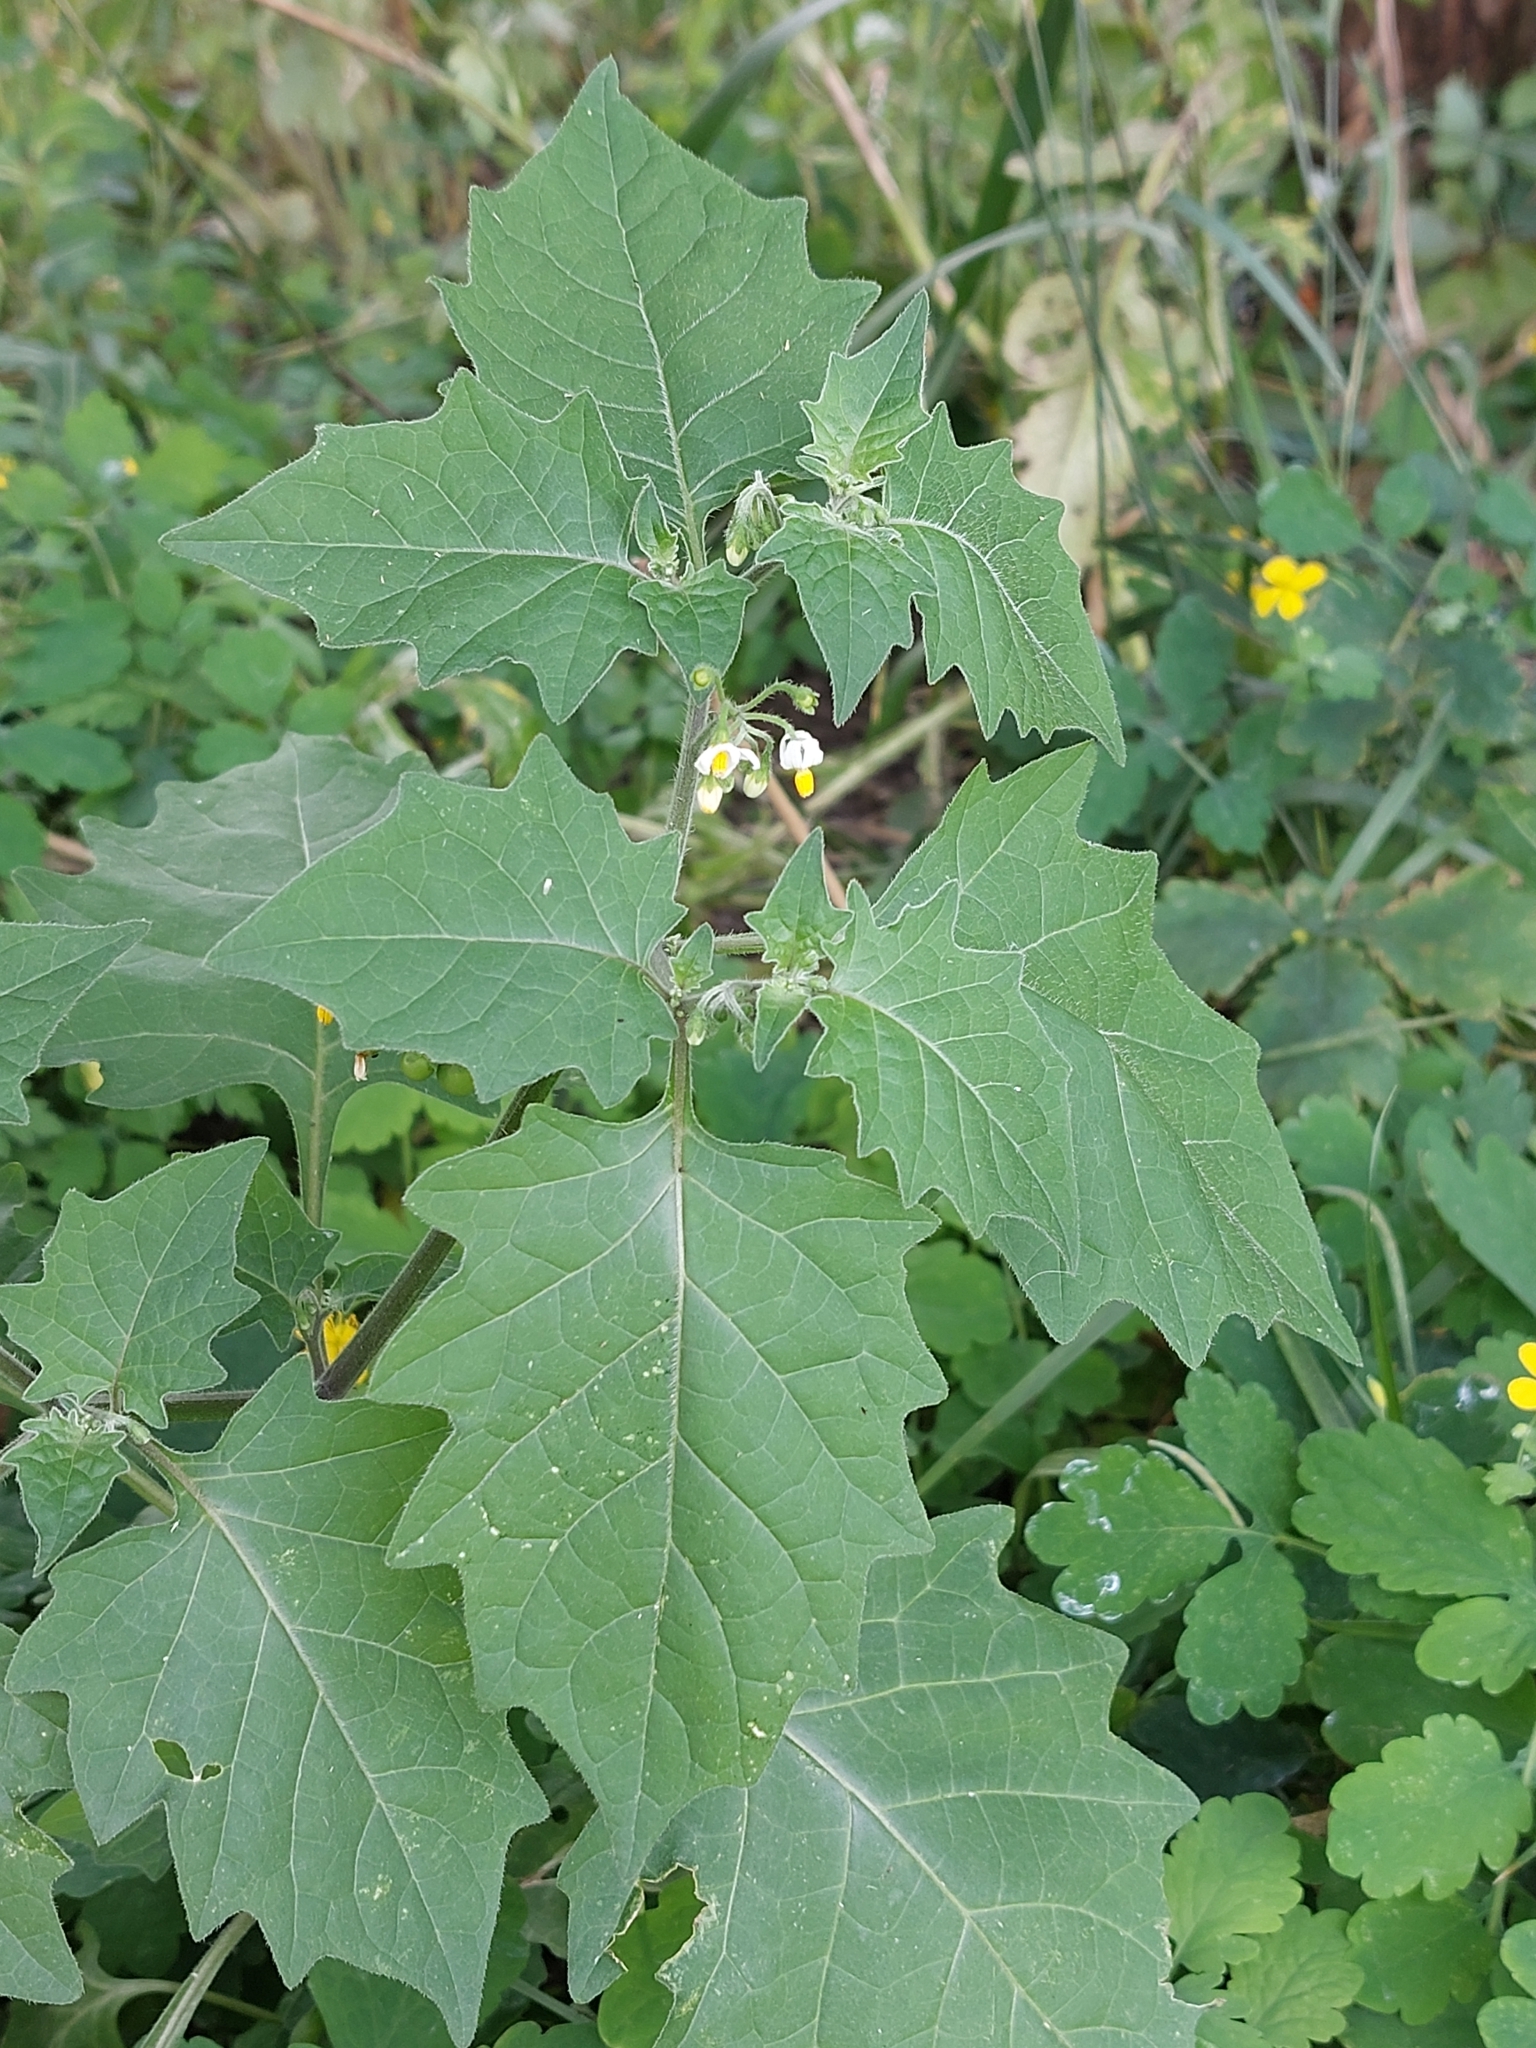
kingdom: Plantae
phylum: Tracheophyta
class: Magnoliopsida
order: Solanales
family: Solanaceae
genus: Solanum
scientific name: Solanum nigrum
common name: Black nightshade
